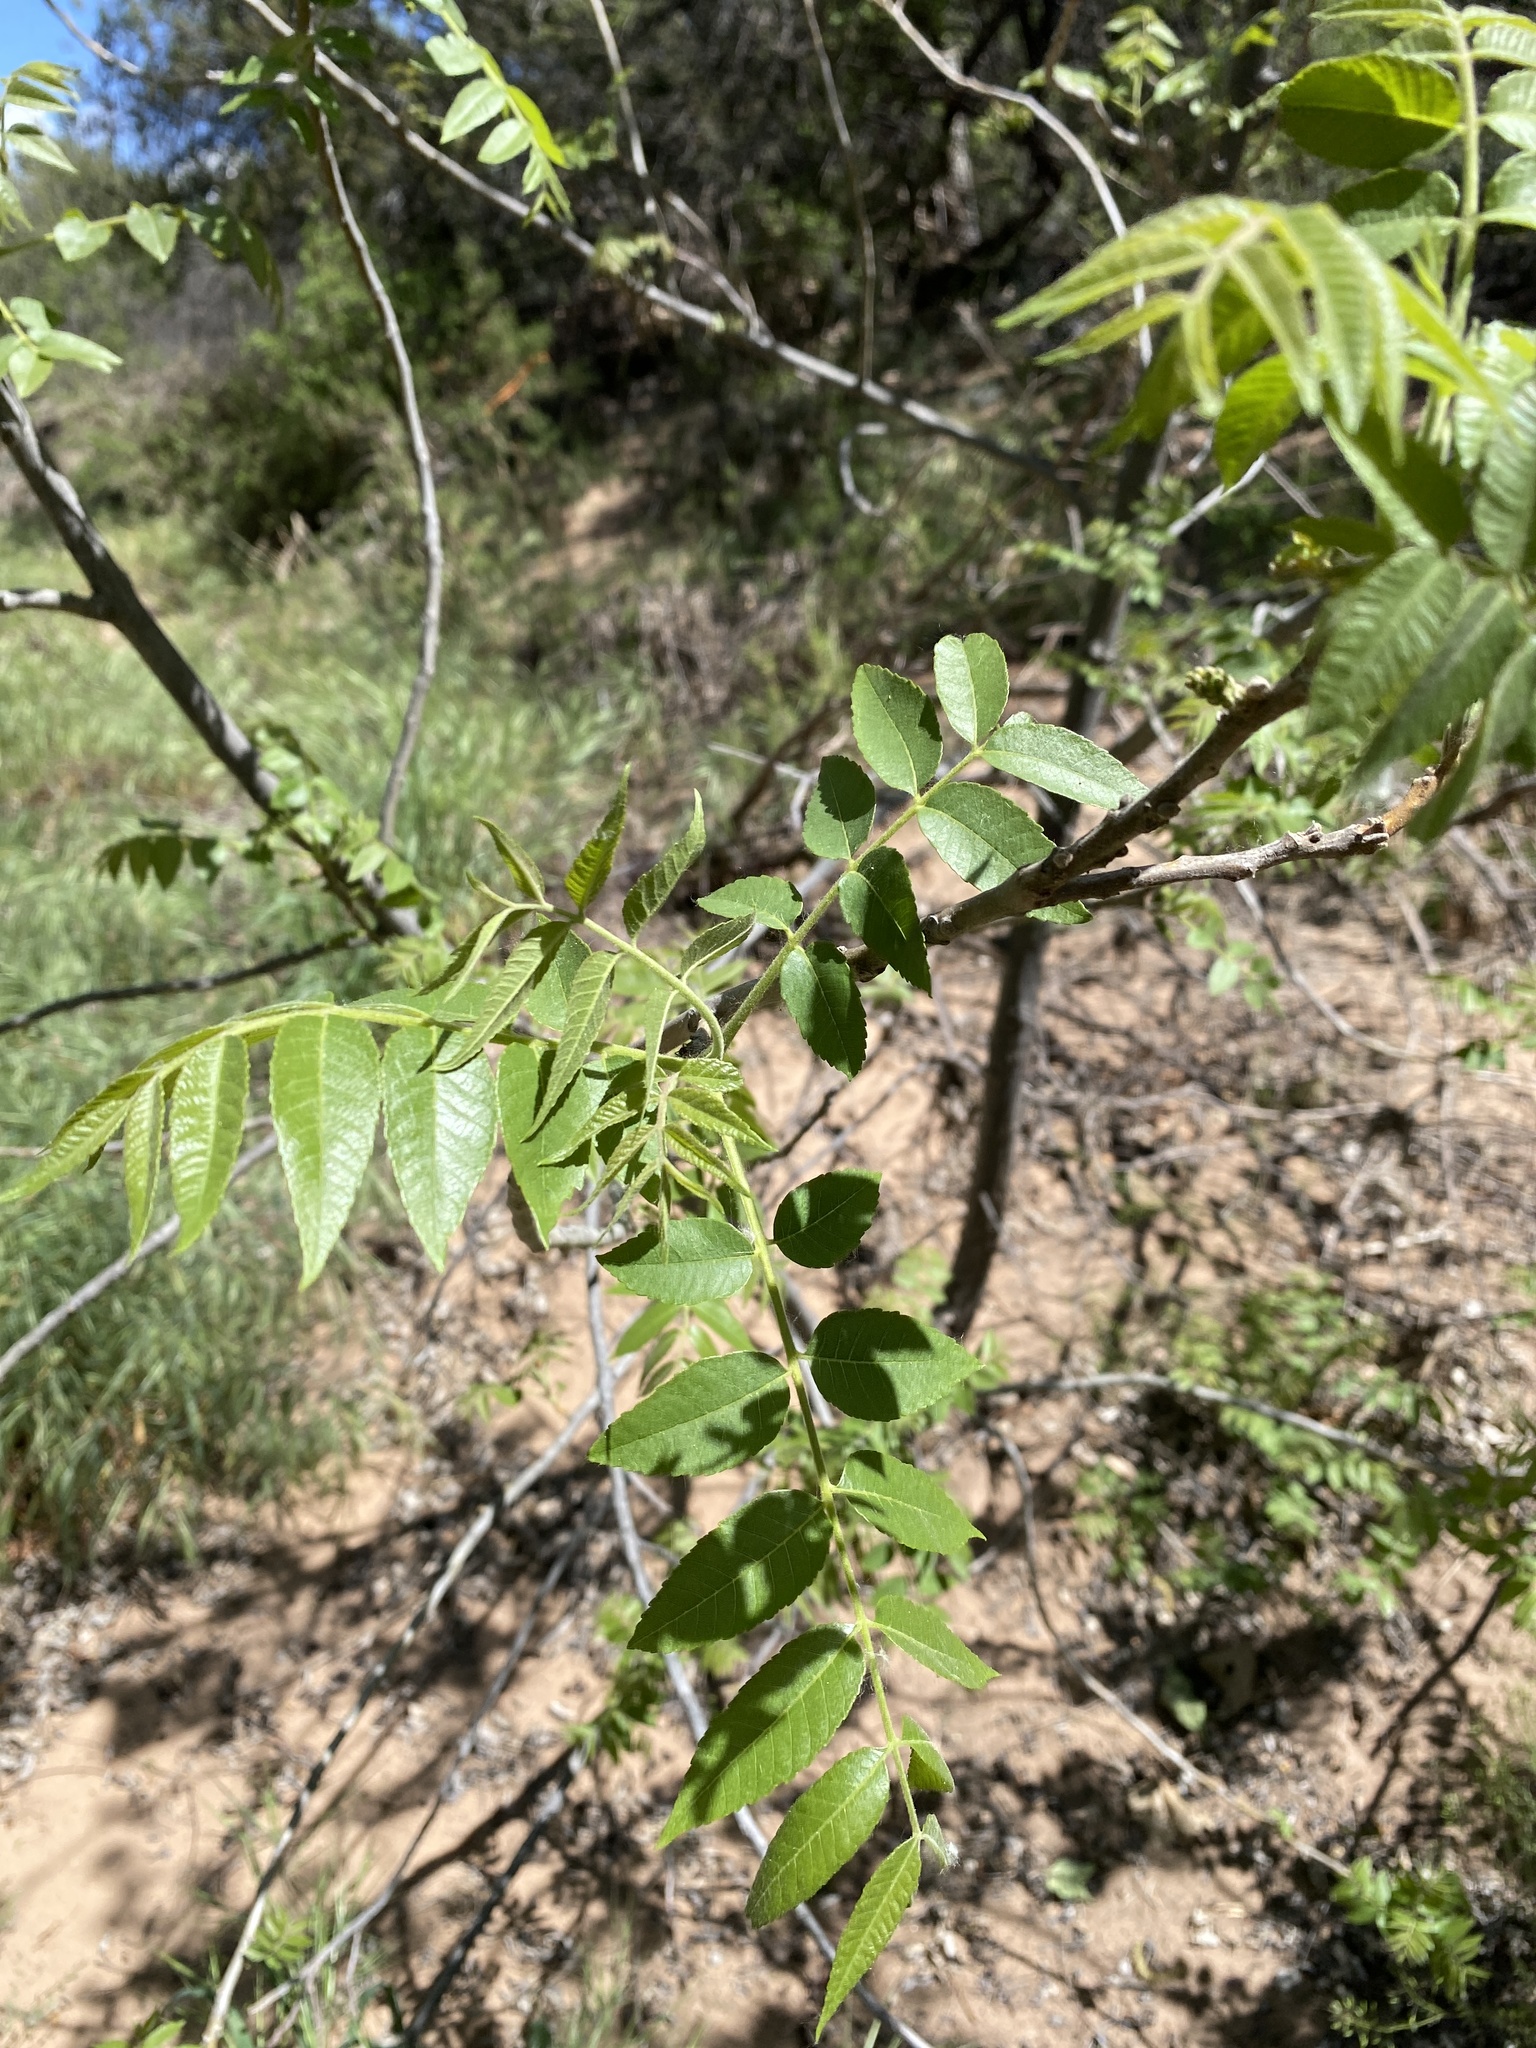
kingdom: Plantae
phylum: Tracheophyta
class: Magnoliopsida
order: Fagales
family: Juglandaceae
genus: Juglans
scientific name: Juglans major
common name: Arizona walnut
